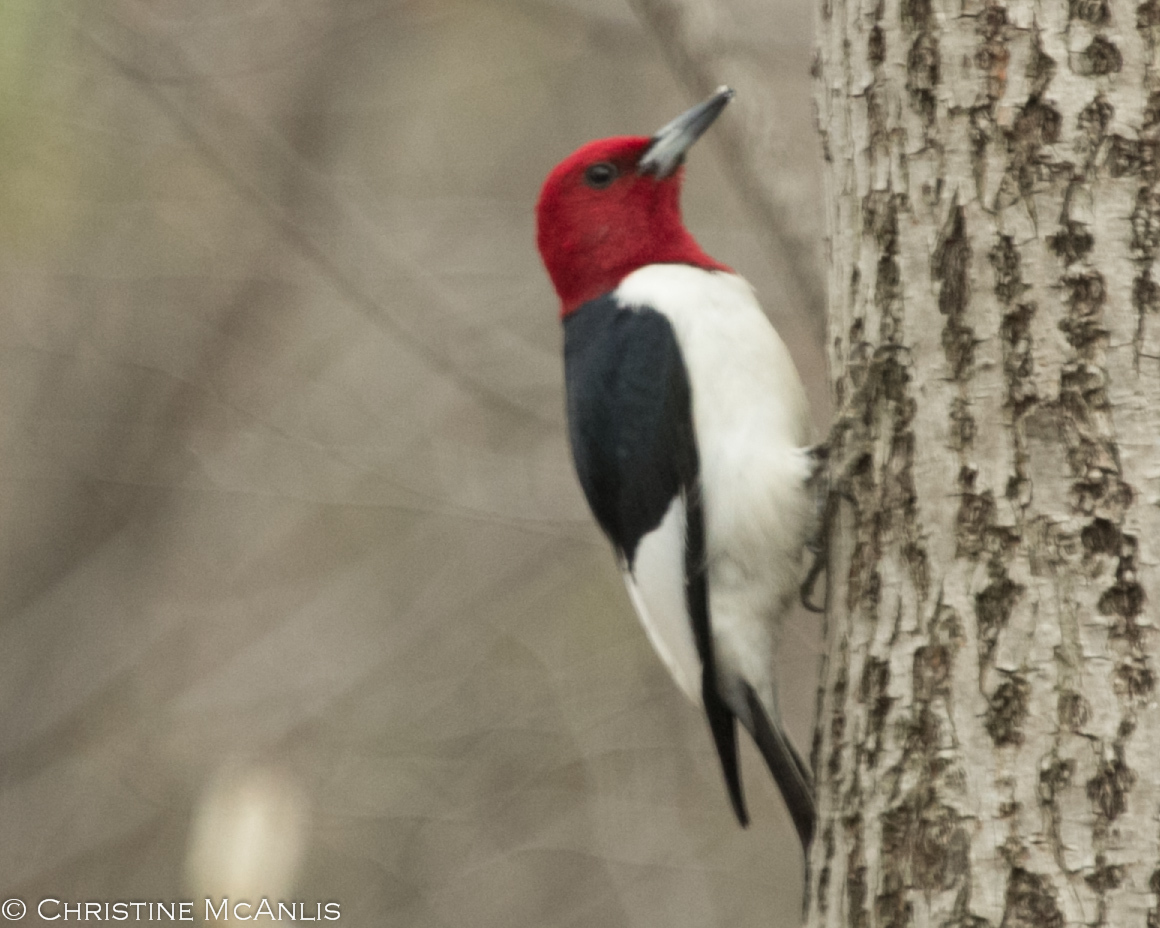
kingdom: Animalia
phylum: Chordata
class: Aves
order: Piciformes
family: Picidae
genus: Melanerpes
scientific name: Melanerpes erythrocephalus
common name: Red-headed woodpecker
